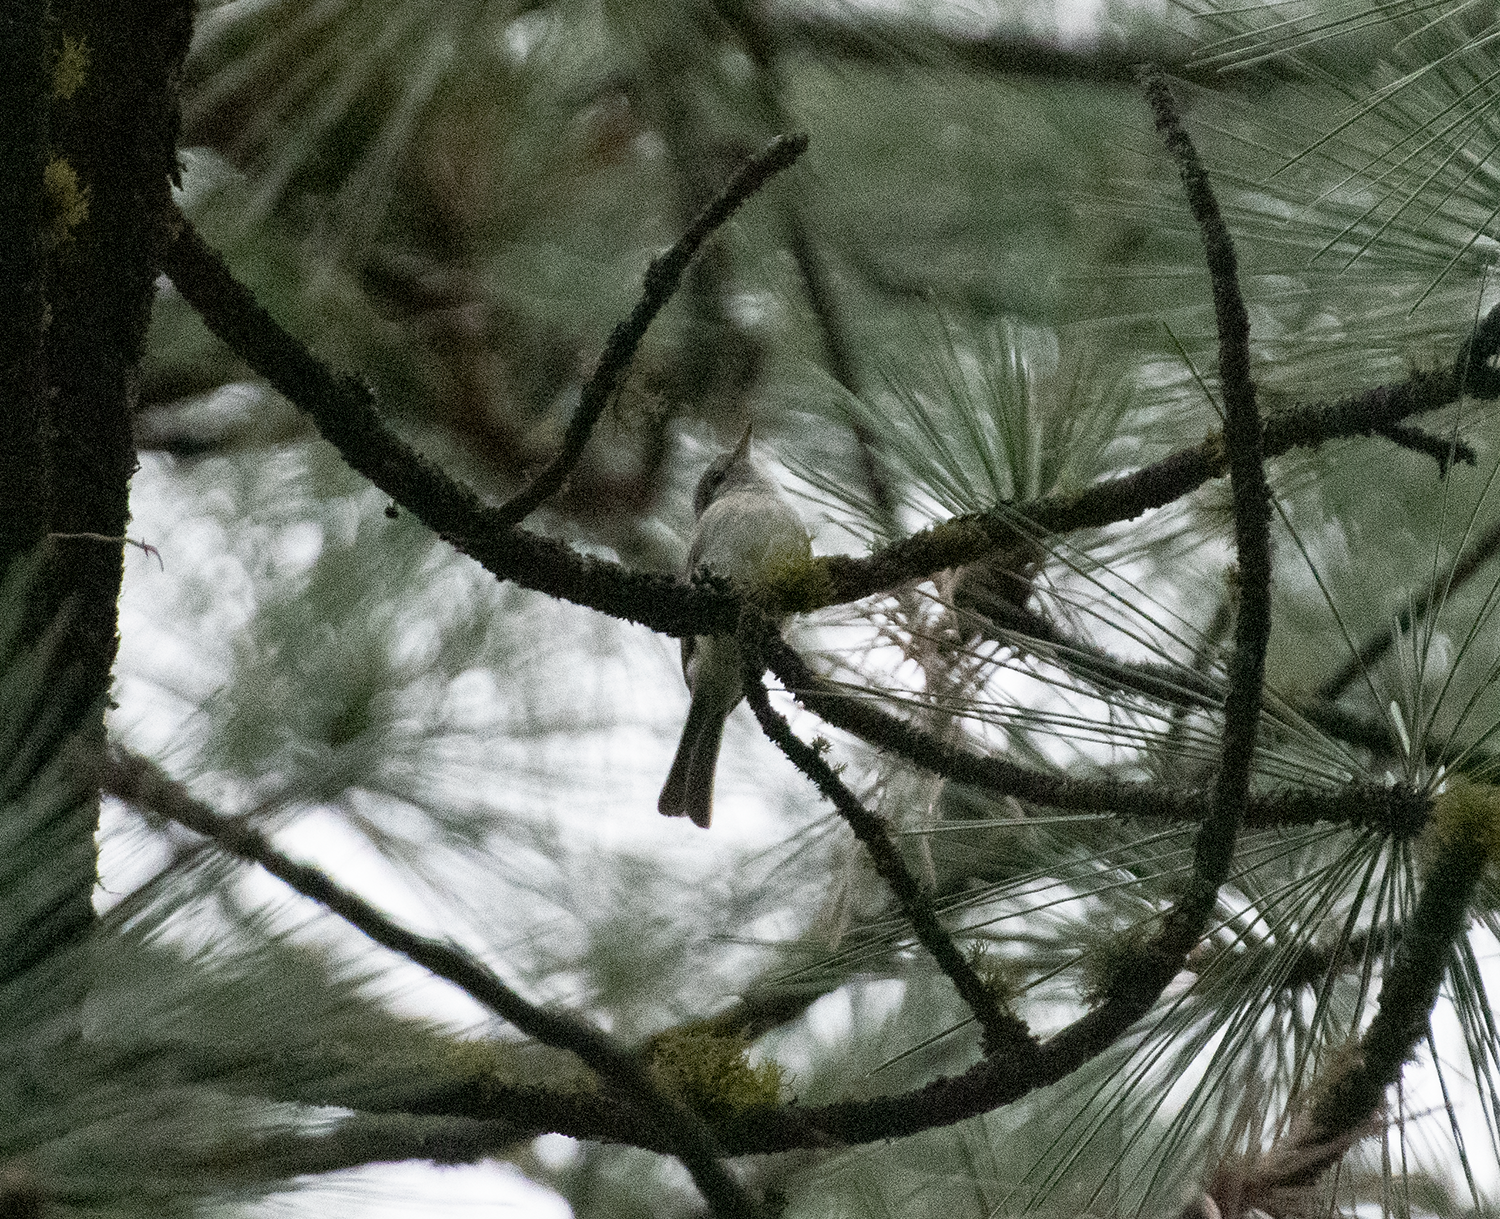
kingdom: Animalia
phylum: Chordata
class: Aves
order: Passeriformes
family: Tyrannidae
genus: Empidonax
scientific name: Empidonax wrightii
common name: Gray flycatcher
